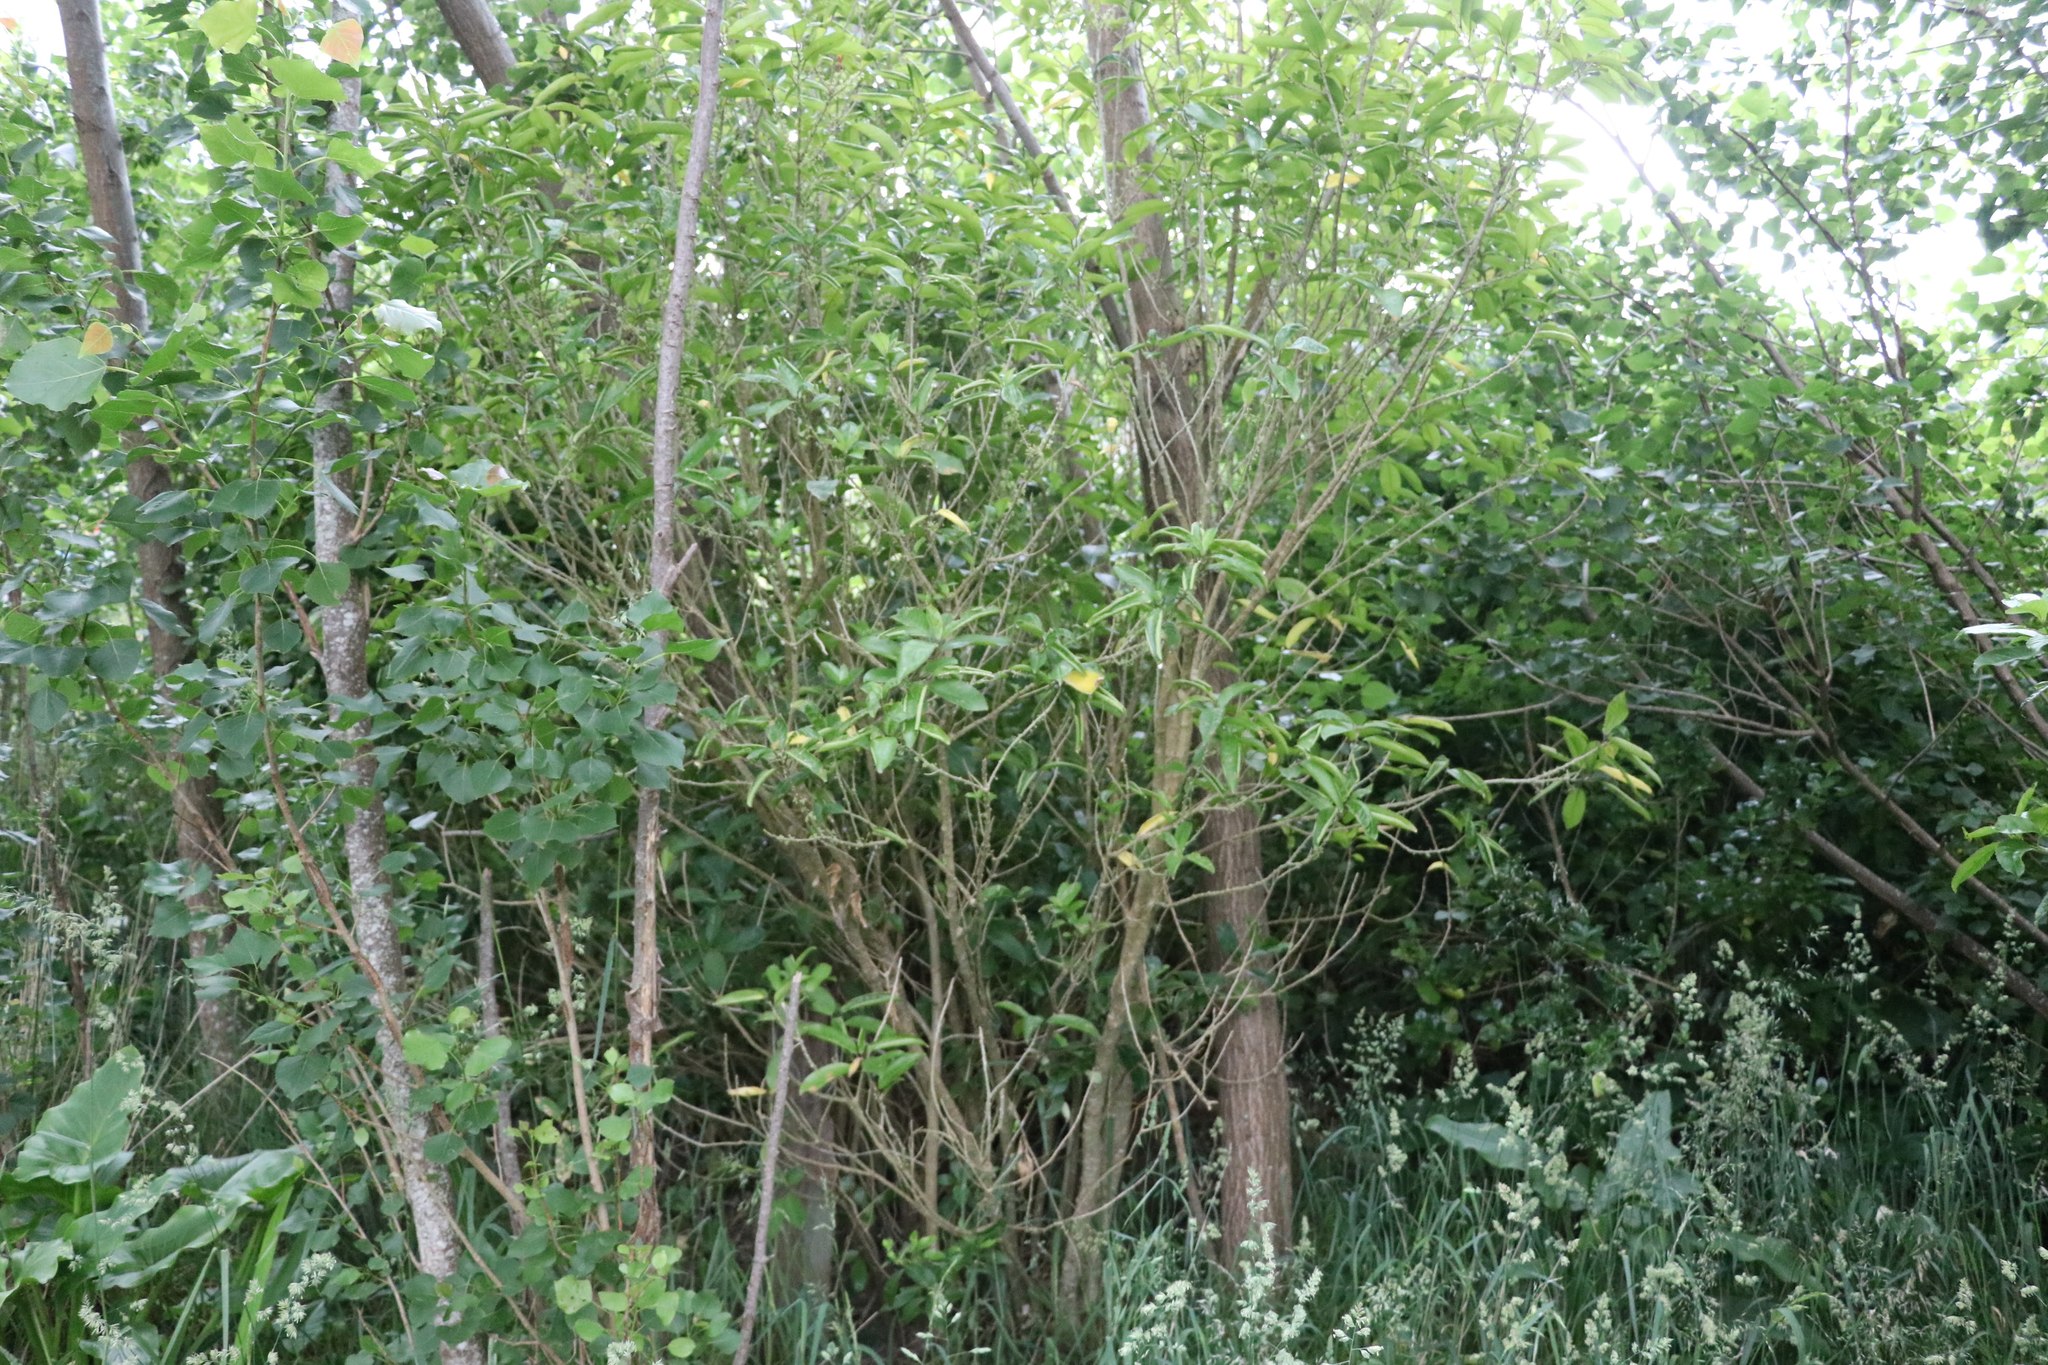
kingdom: Plantae
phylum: Tracheophyta
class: Magnoliopsida
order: Malpighiales
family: Violaceae
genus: Melicytus
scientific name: Melicytus ramiflorus
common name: Mahoe
